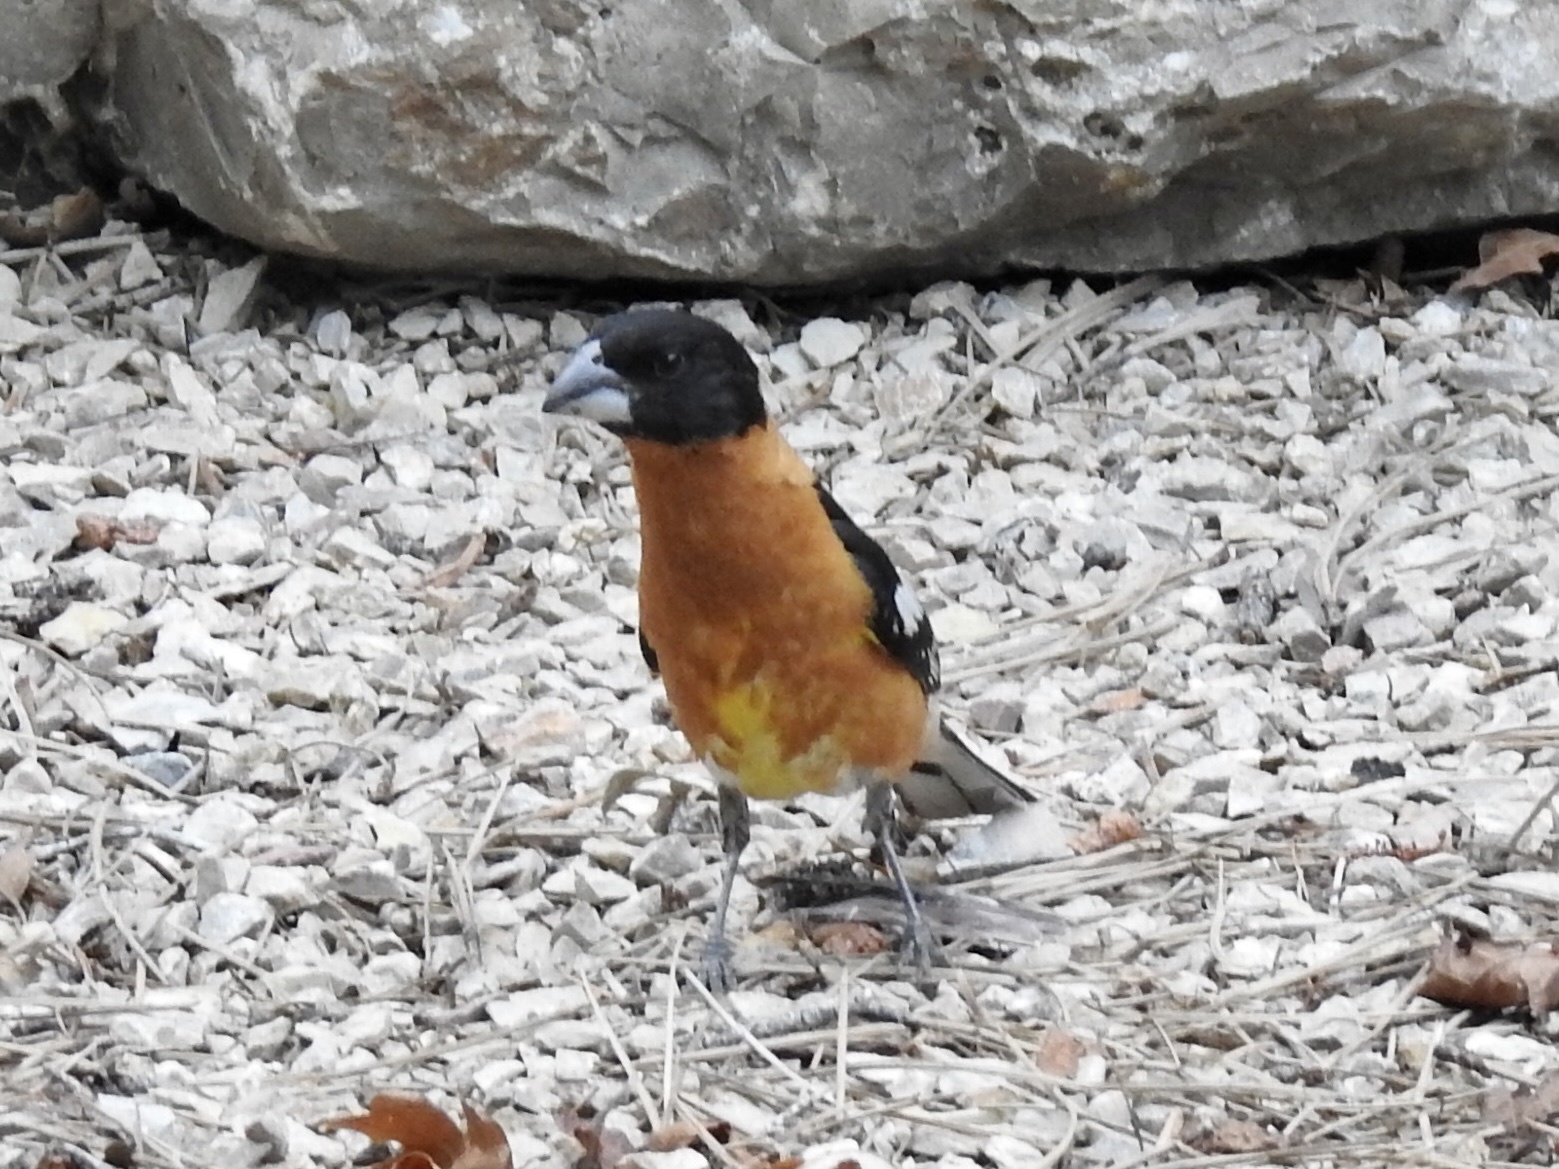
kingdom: Animalia
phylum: Chordata
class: Aves
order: Passeriformes
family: Cardinalidae
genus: Pheucticus
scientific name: Pheucticus melanocephalus
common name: Black-headed grosbeak
